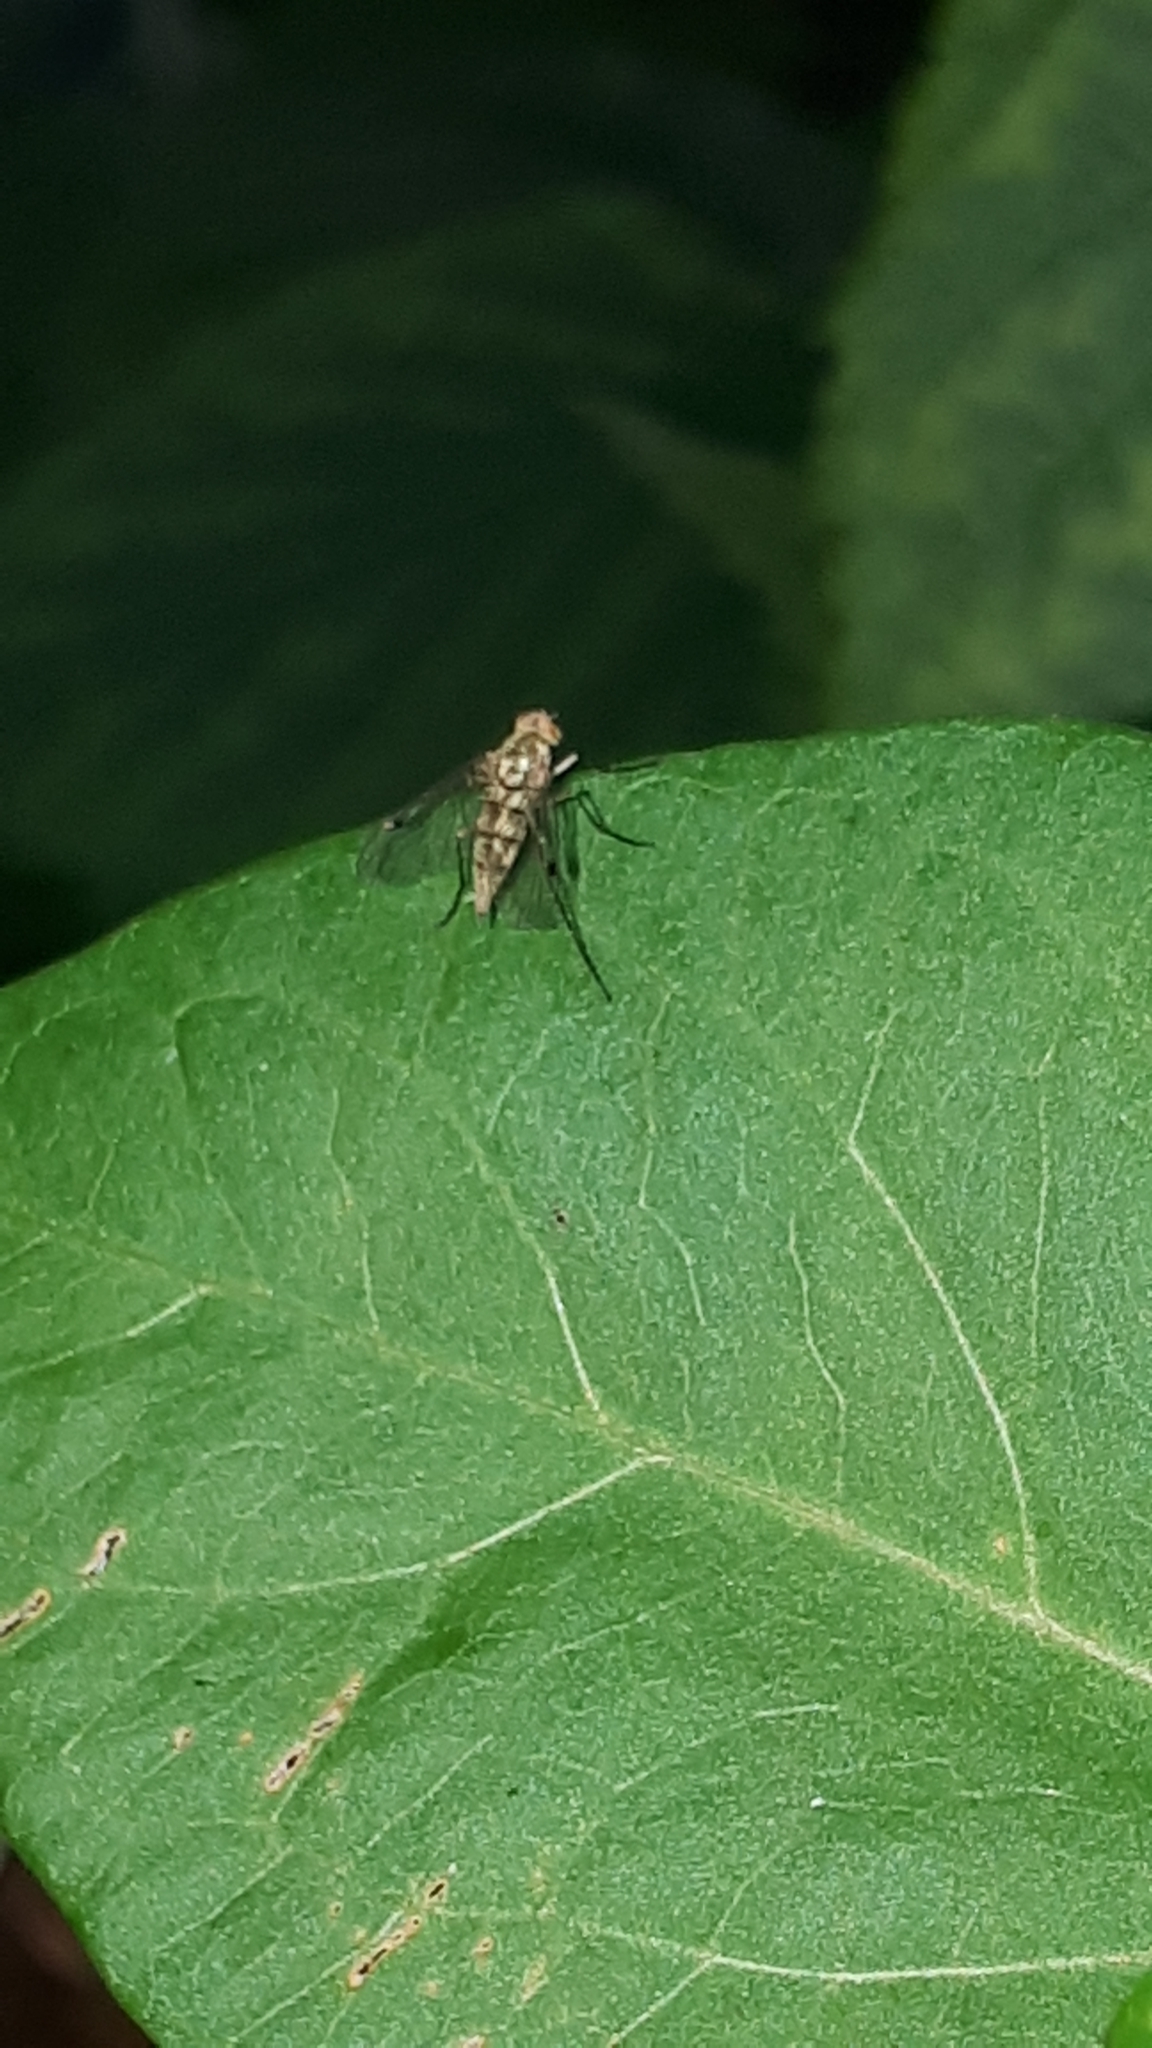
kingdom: Animalia
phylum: Arthropoda
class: Insecta
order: Diptera
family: Rhagionidae
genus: Chrysopilus
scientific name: Chrysopilus asiliformis
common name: Little snipefly
